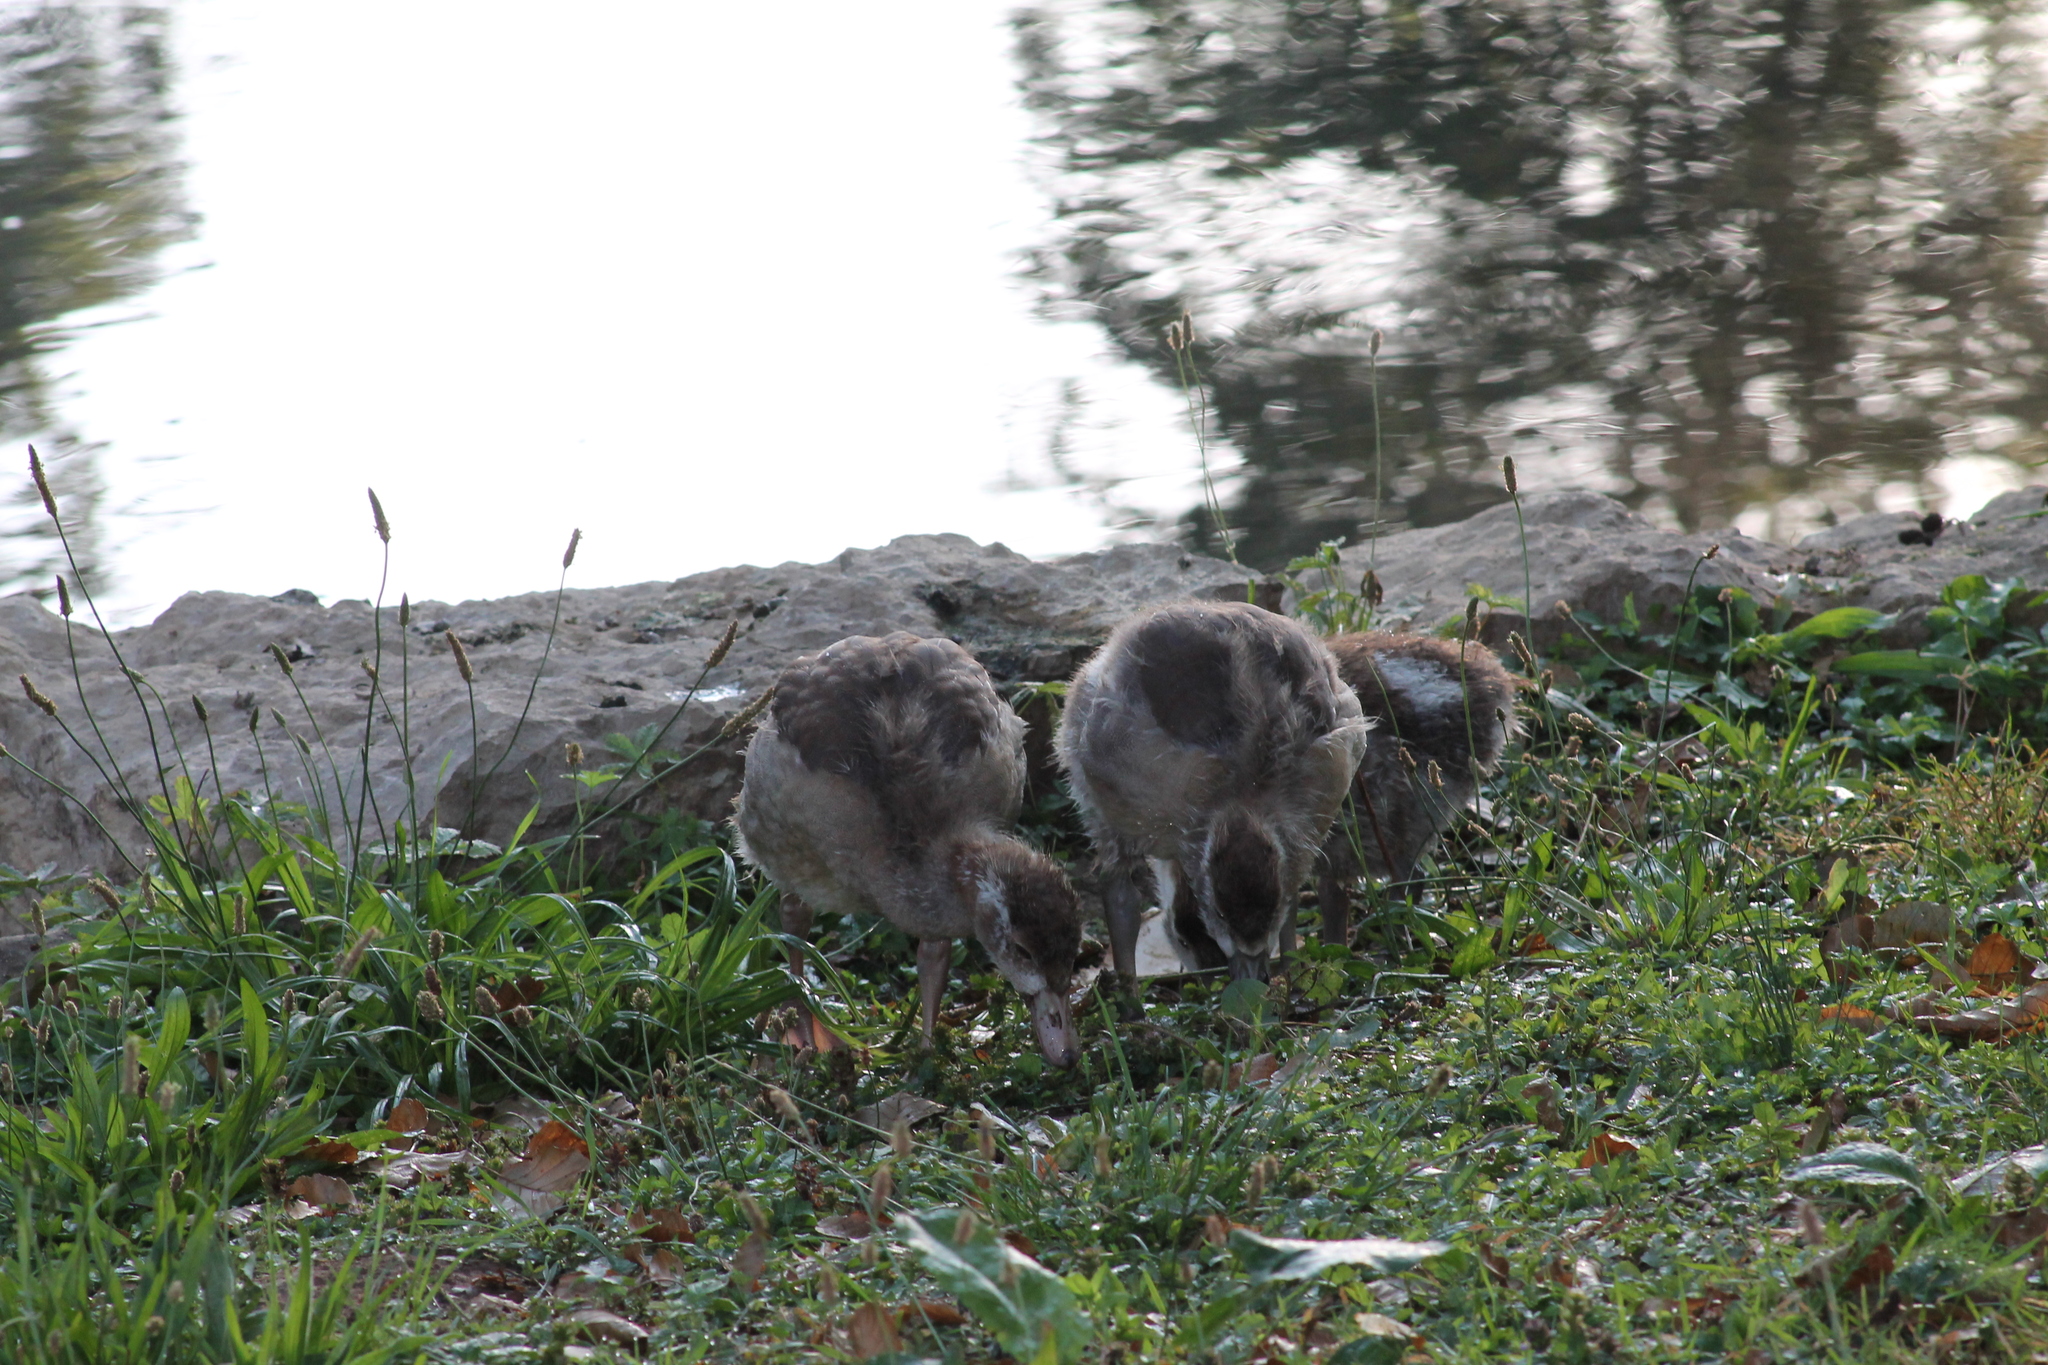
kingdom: Animalia
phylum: Chordata
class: Aves
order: Anseriformes
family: Anatidae
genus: Alopochen
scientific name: Alopochen aegyptiaca
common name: Egyptian goose
